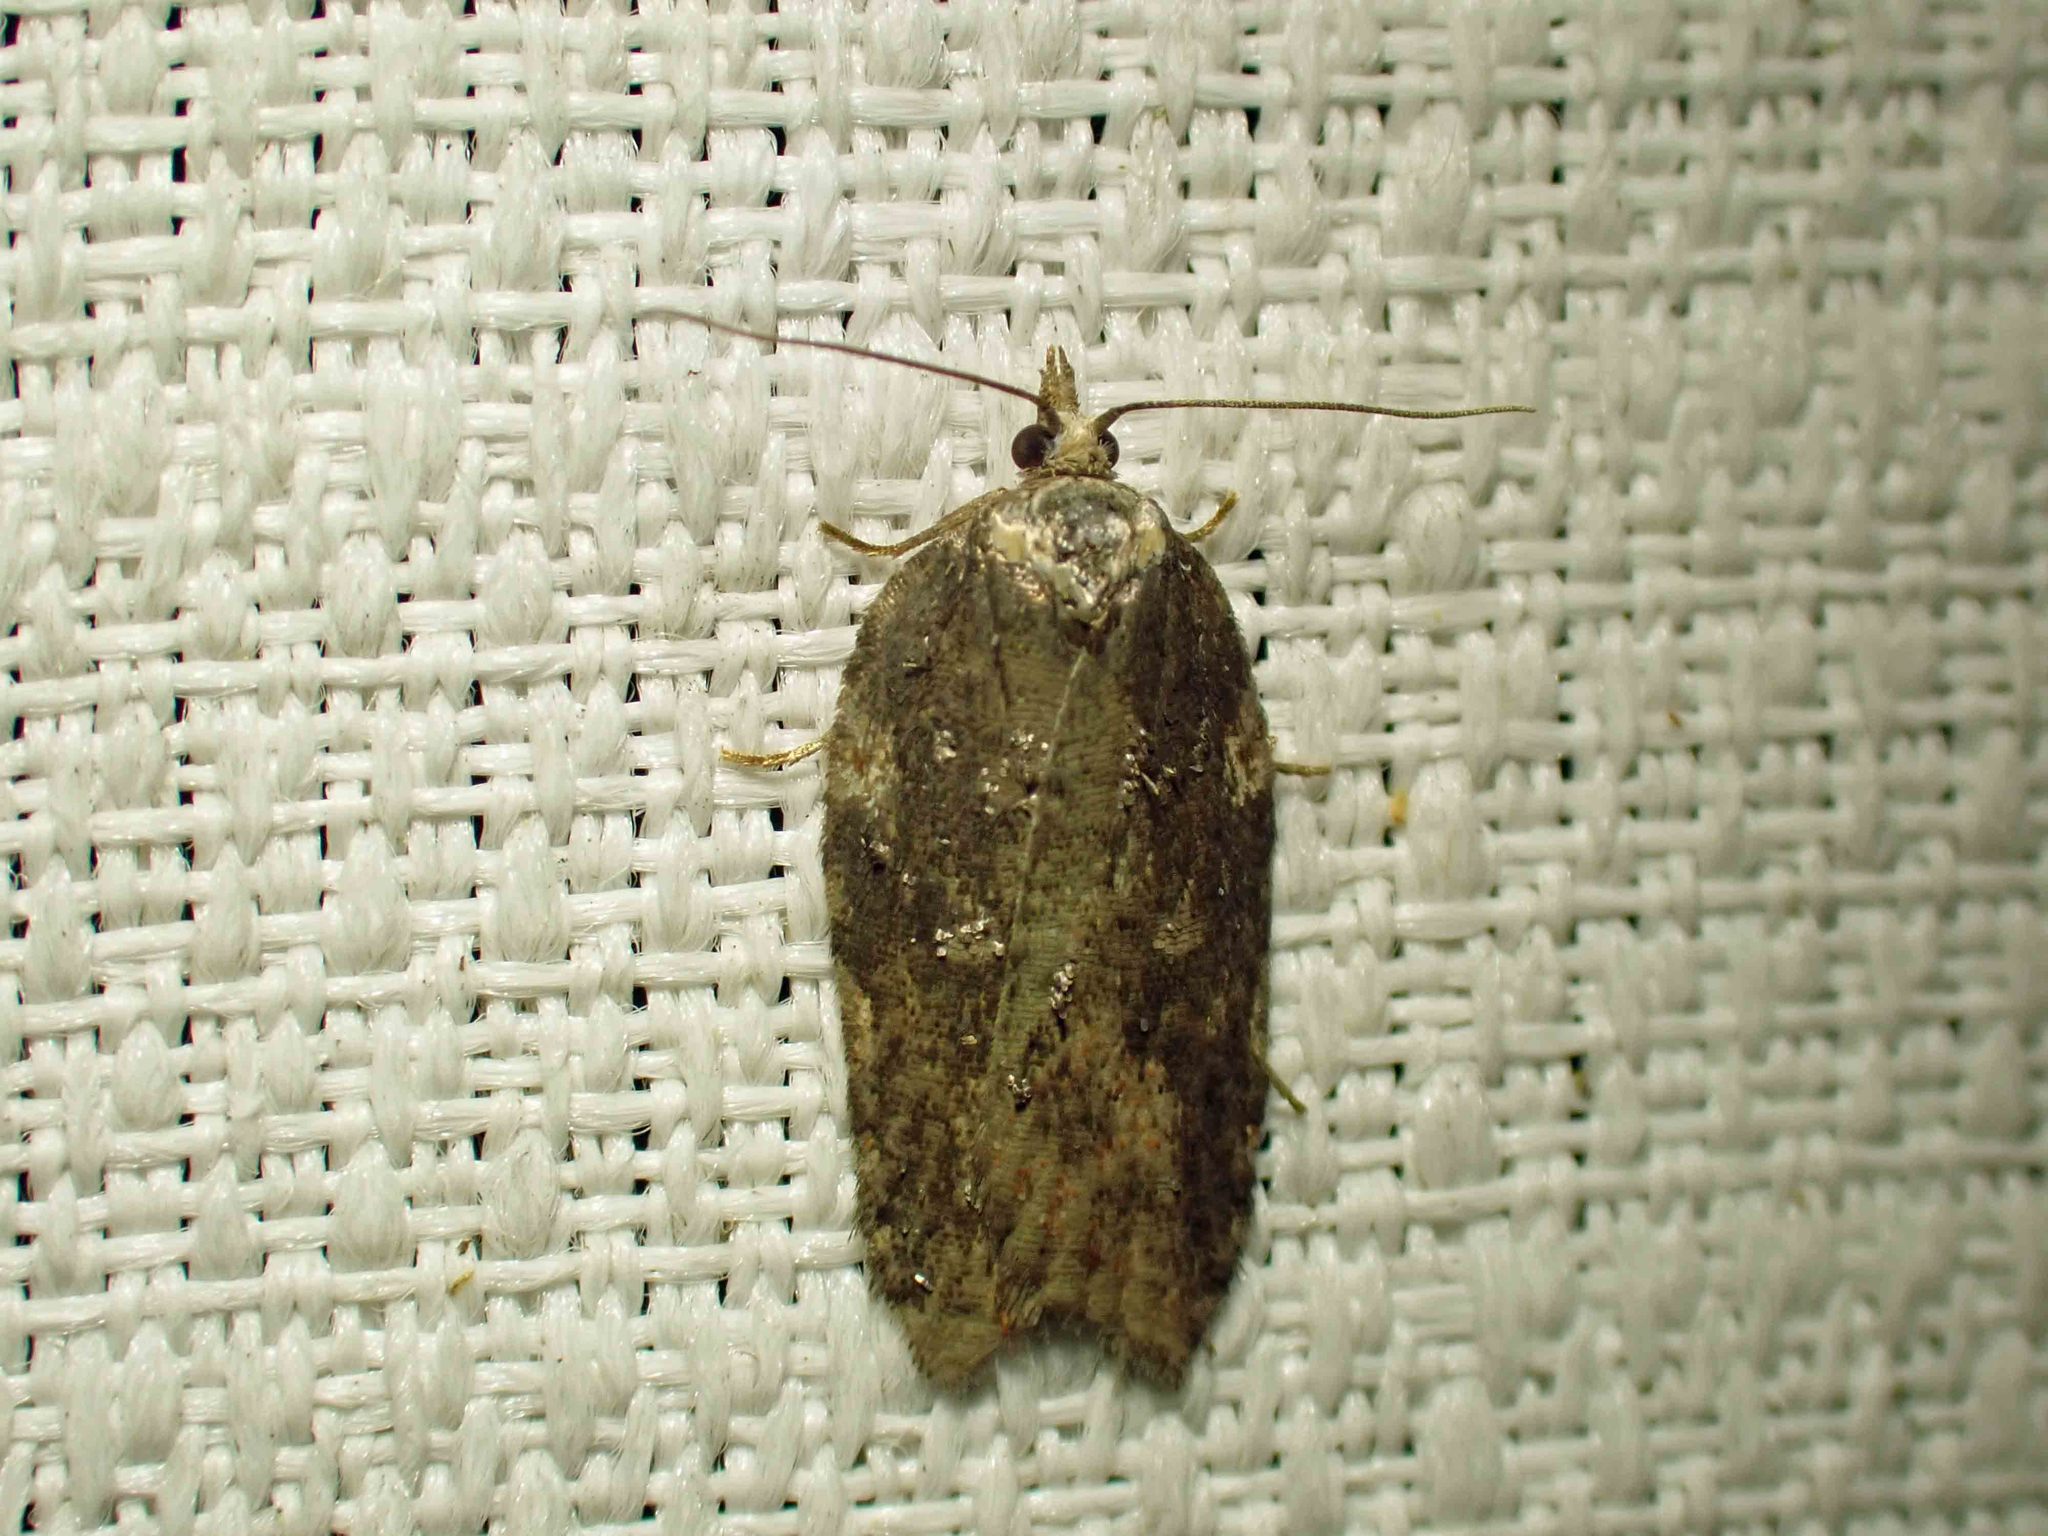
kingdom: Animalia
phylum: Arthropoda
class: Insecta
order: Lepidoptera
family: Tortricidae
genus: Acleris
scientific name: Acleris hastiana
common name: Sallow button
